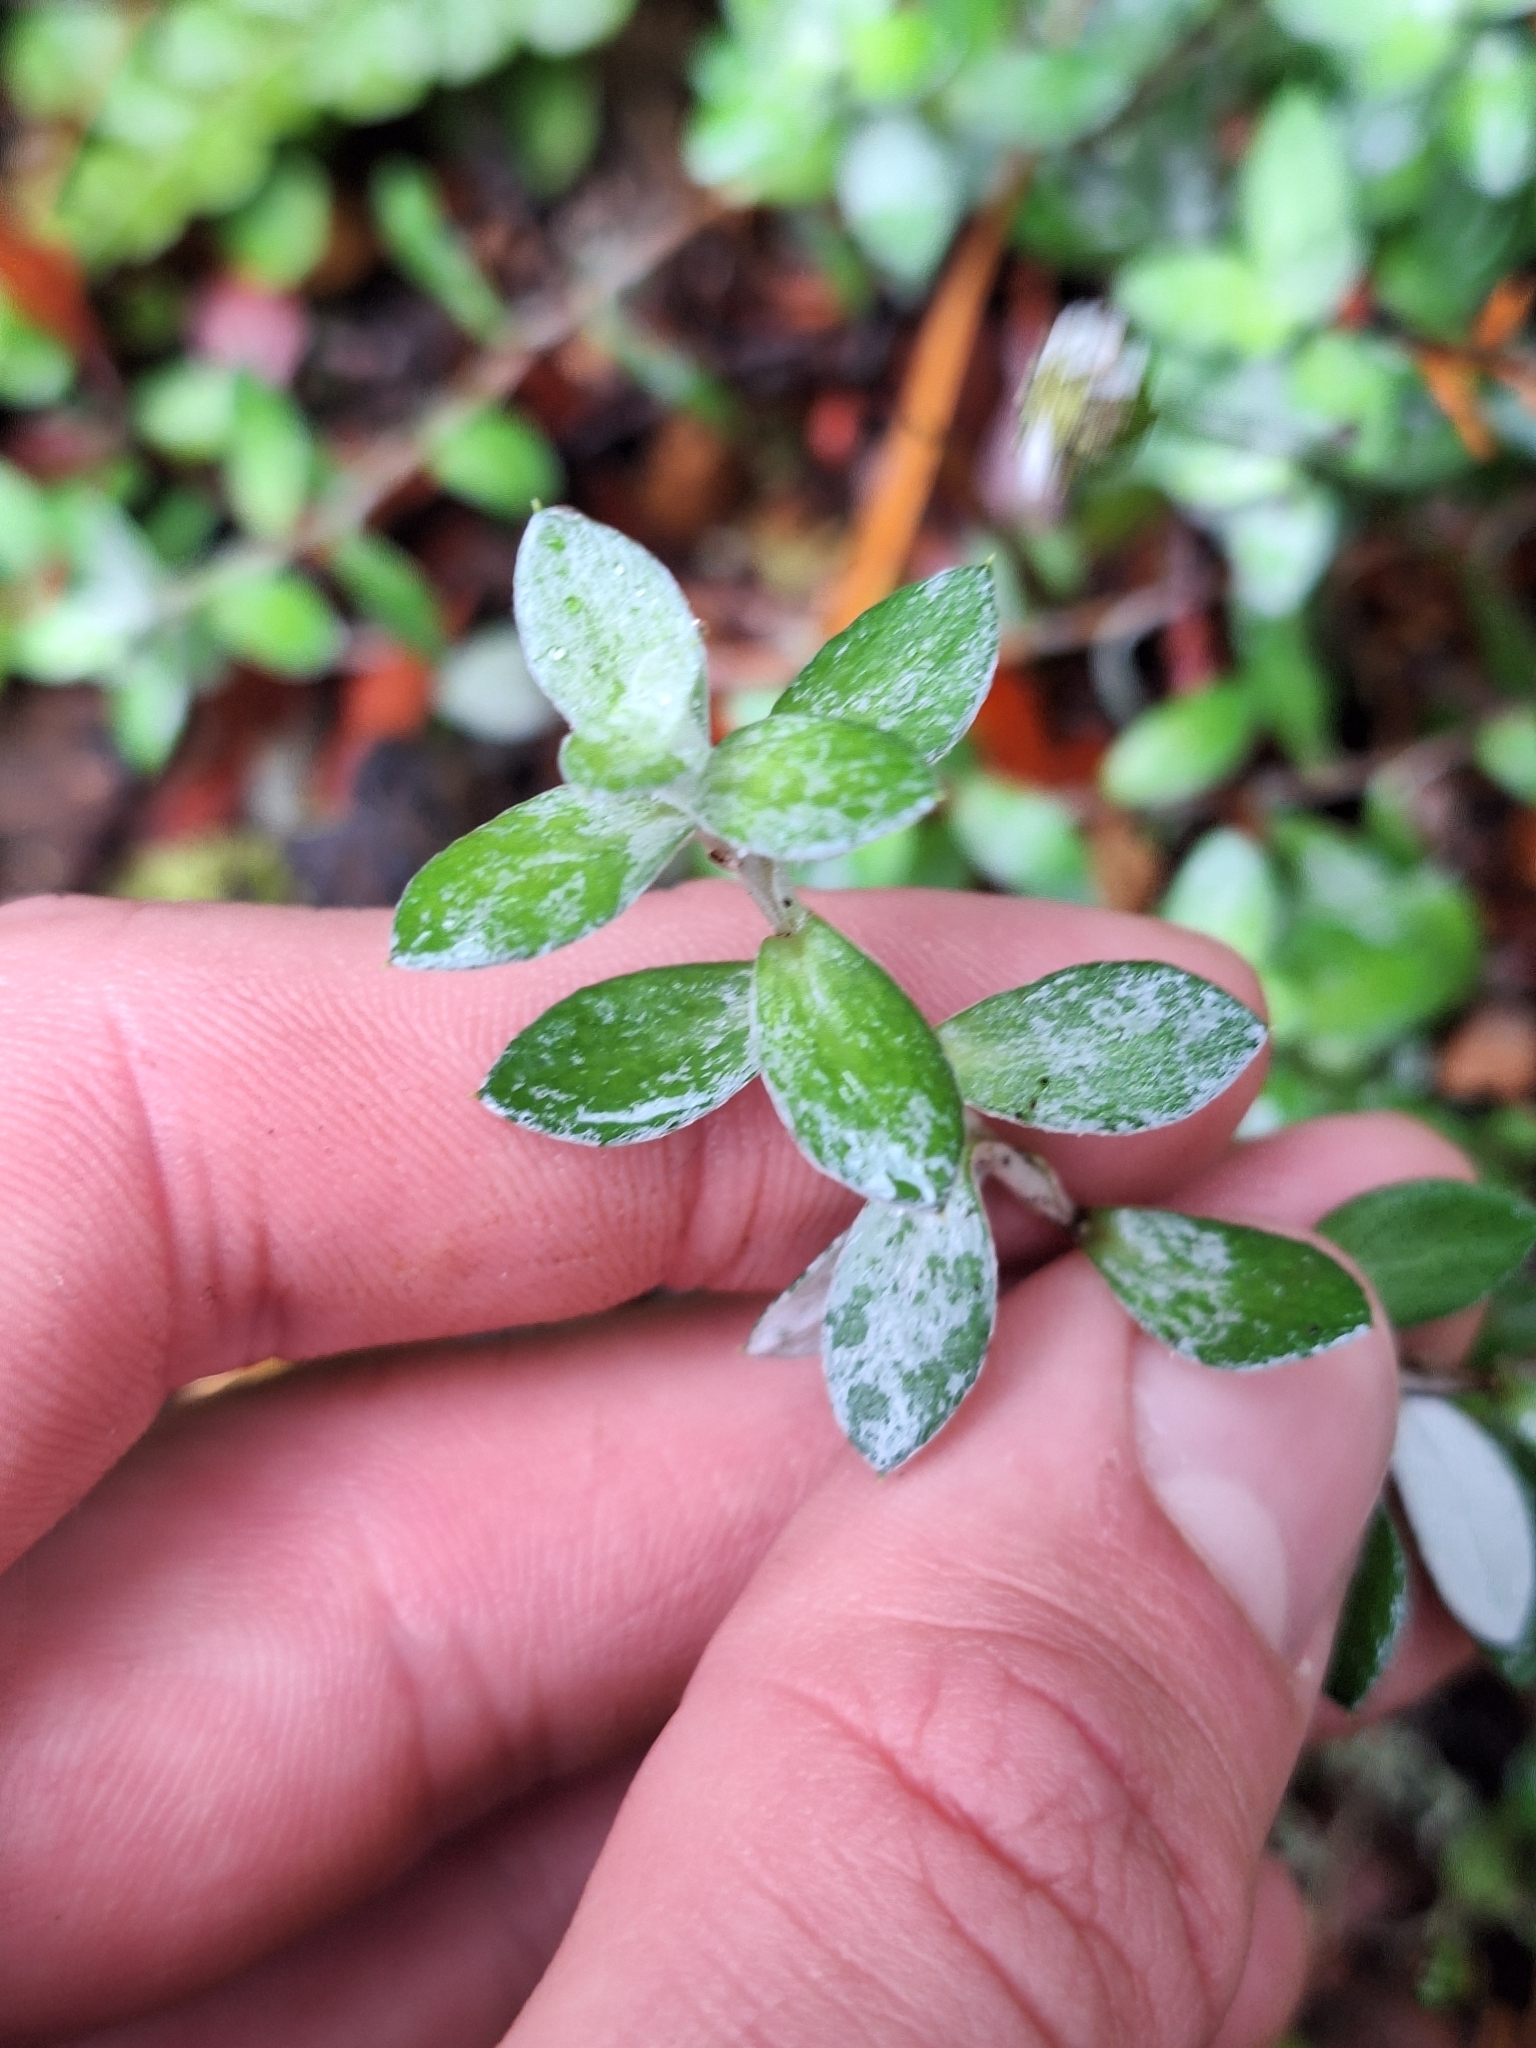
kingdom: Plantae
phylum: Tracheophyta
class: Magnoliopsida
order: Asterales
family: Asteraceae
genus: Anaphalioides
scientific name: Anaphalioides bellidioides
